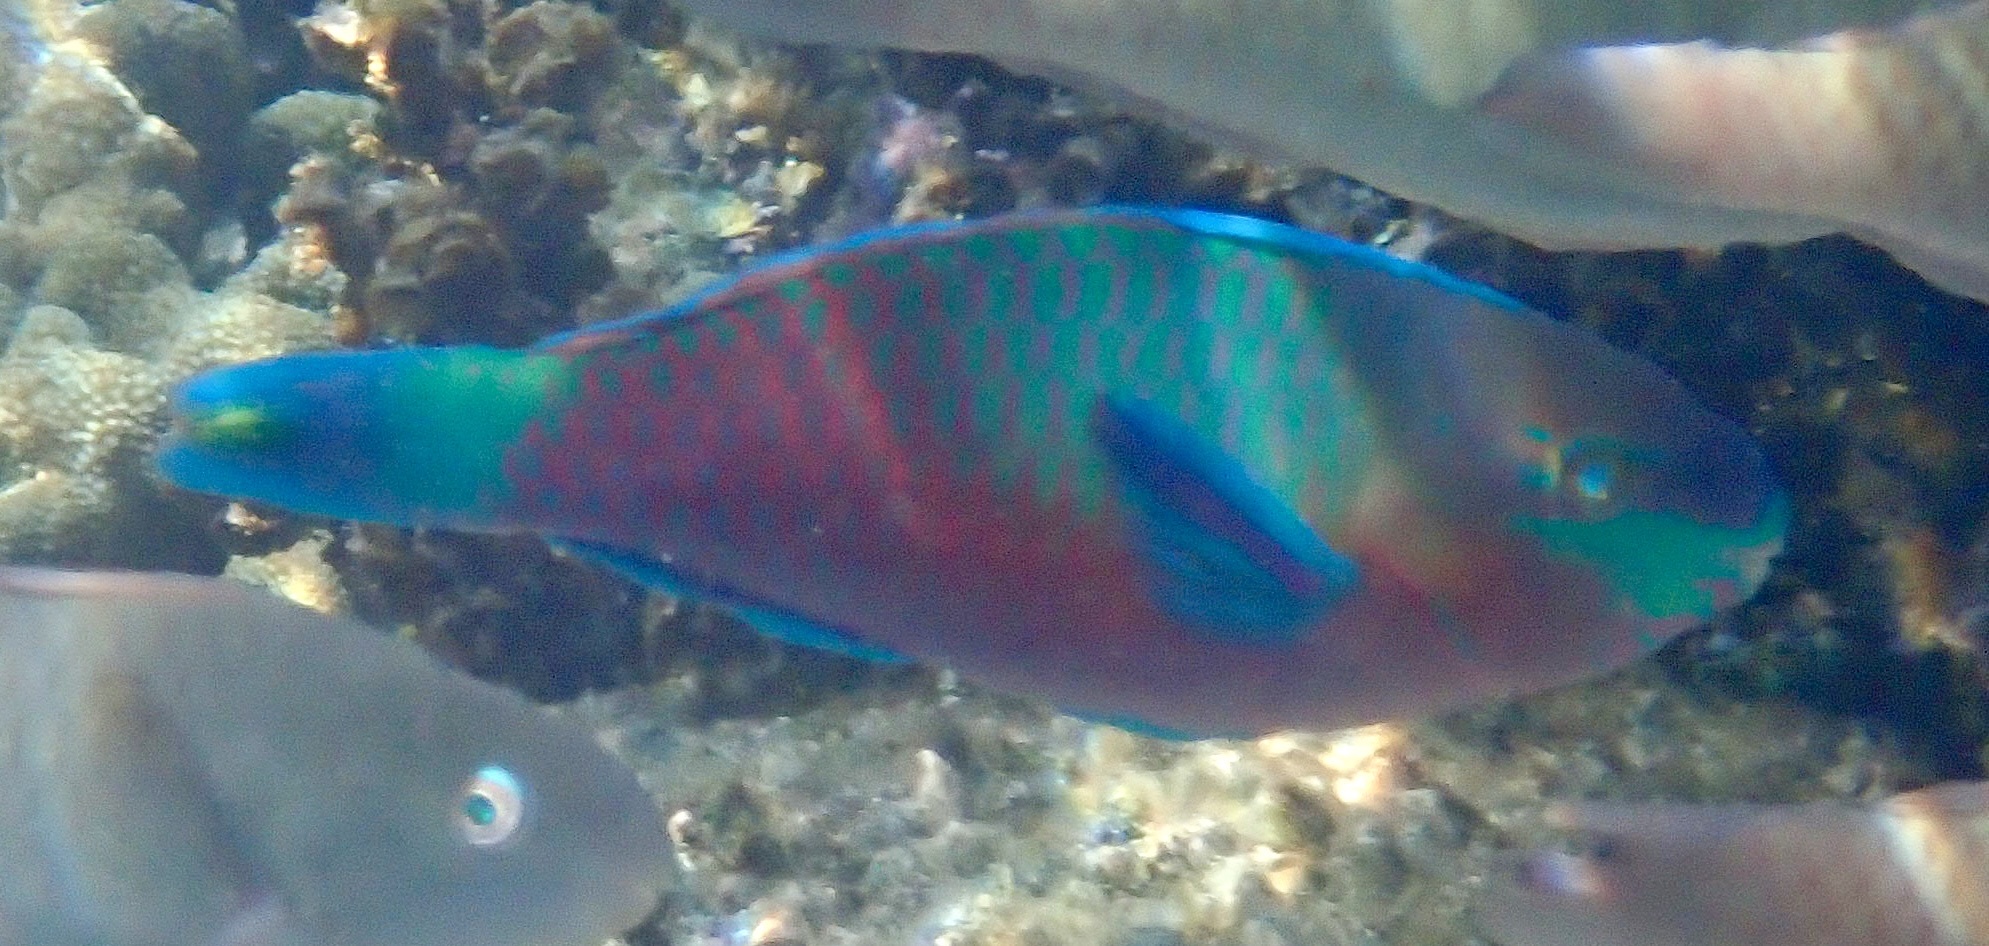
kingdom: Animalia
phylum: Chordata
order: Perciformes
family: Scaridae
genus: Scarus
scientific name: Scarus quoyi
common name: Quoy's parrotfish
